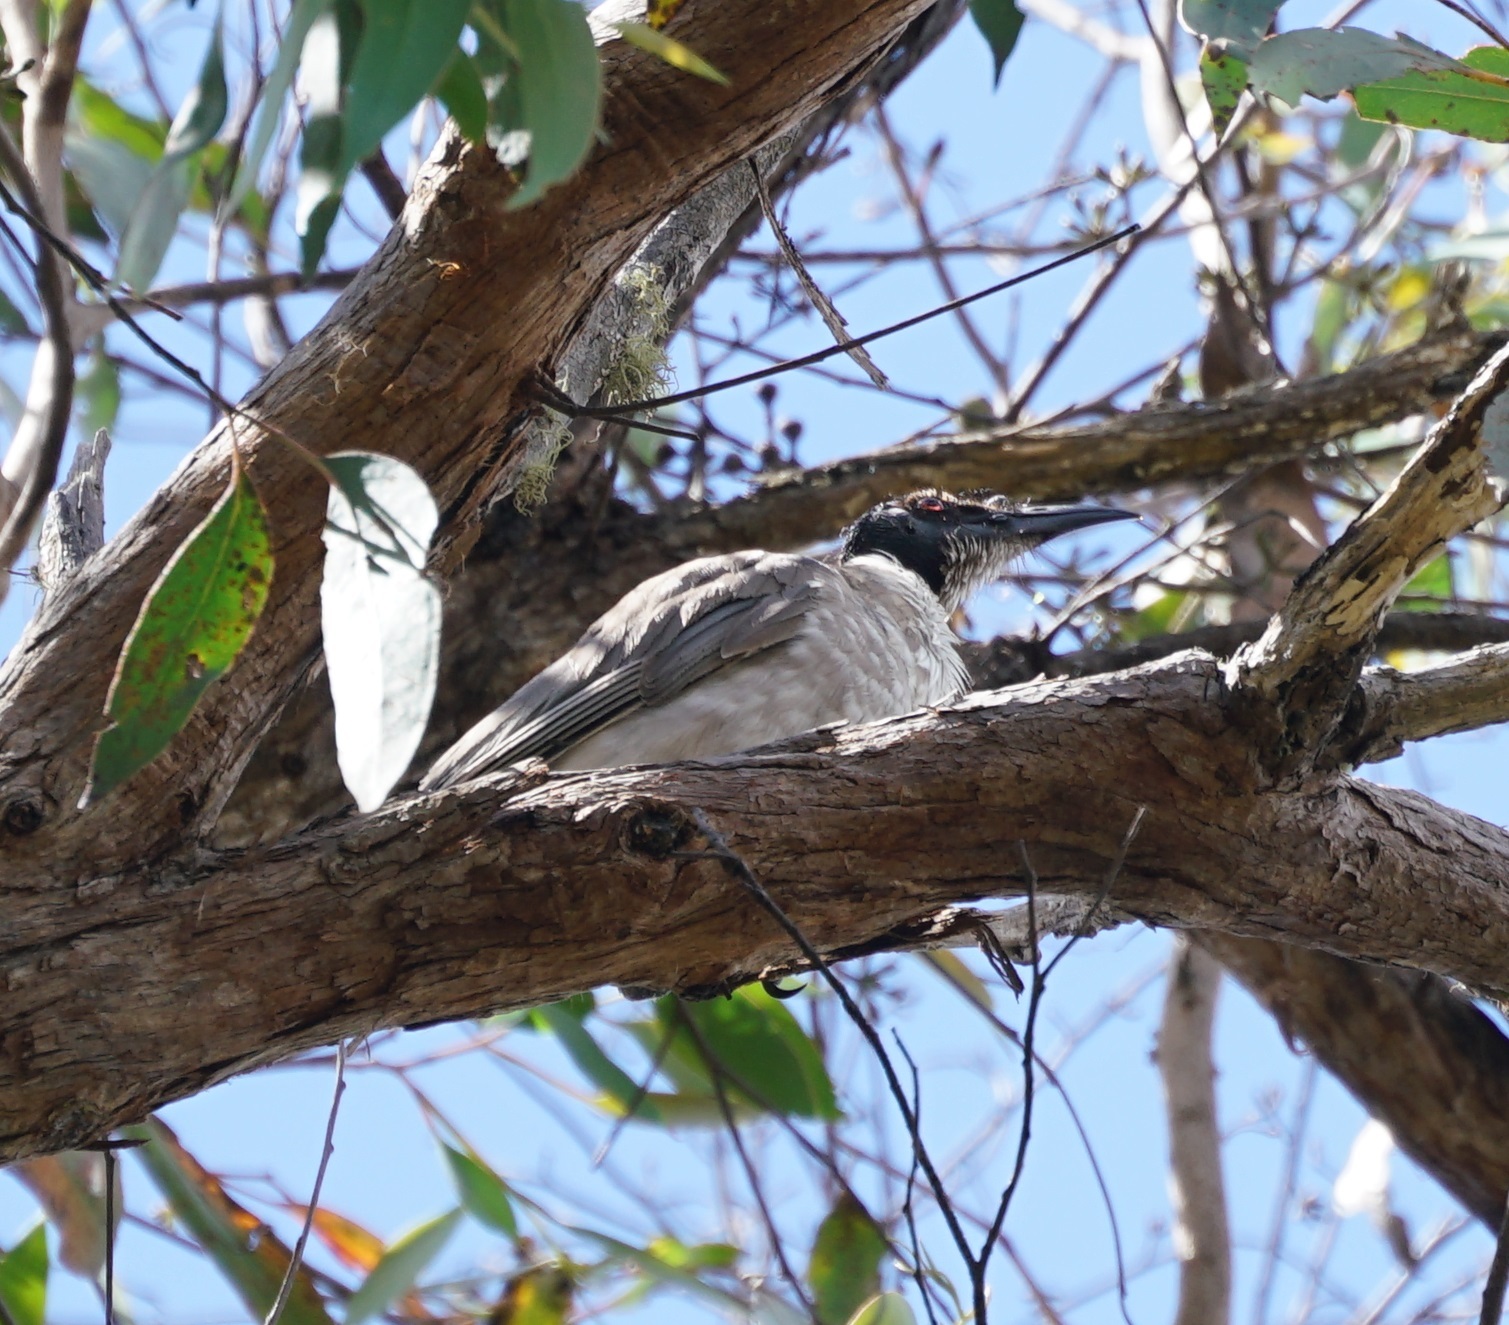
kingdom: Animalia
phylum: Chordata
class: Aves
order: Passeriformes
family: Meliphagidae
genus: Philemon
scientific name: Philemon corniculatus
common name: Noisy friarbird
